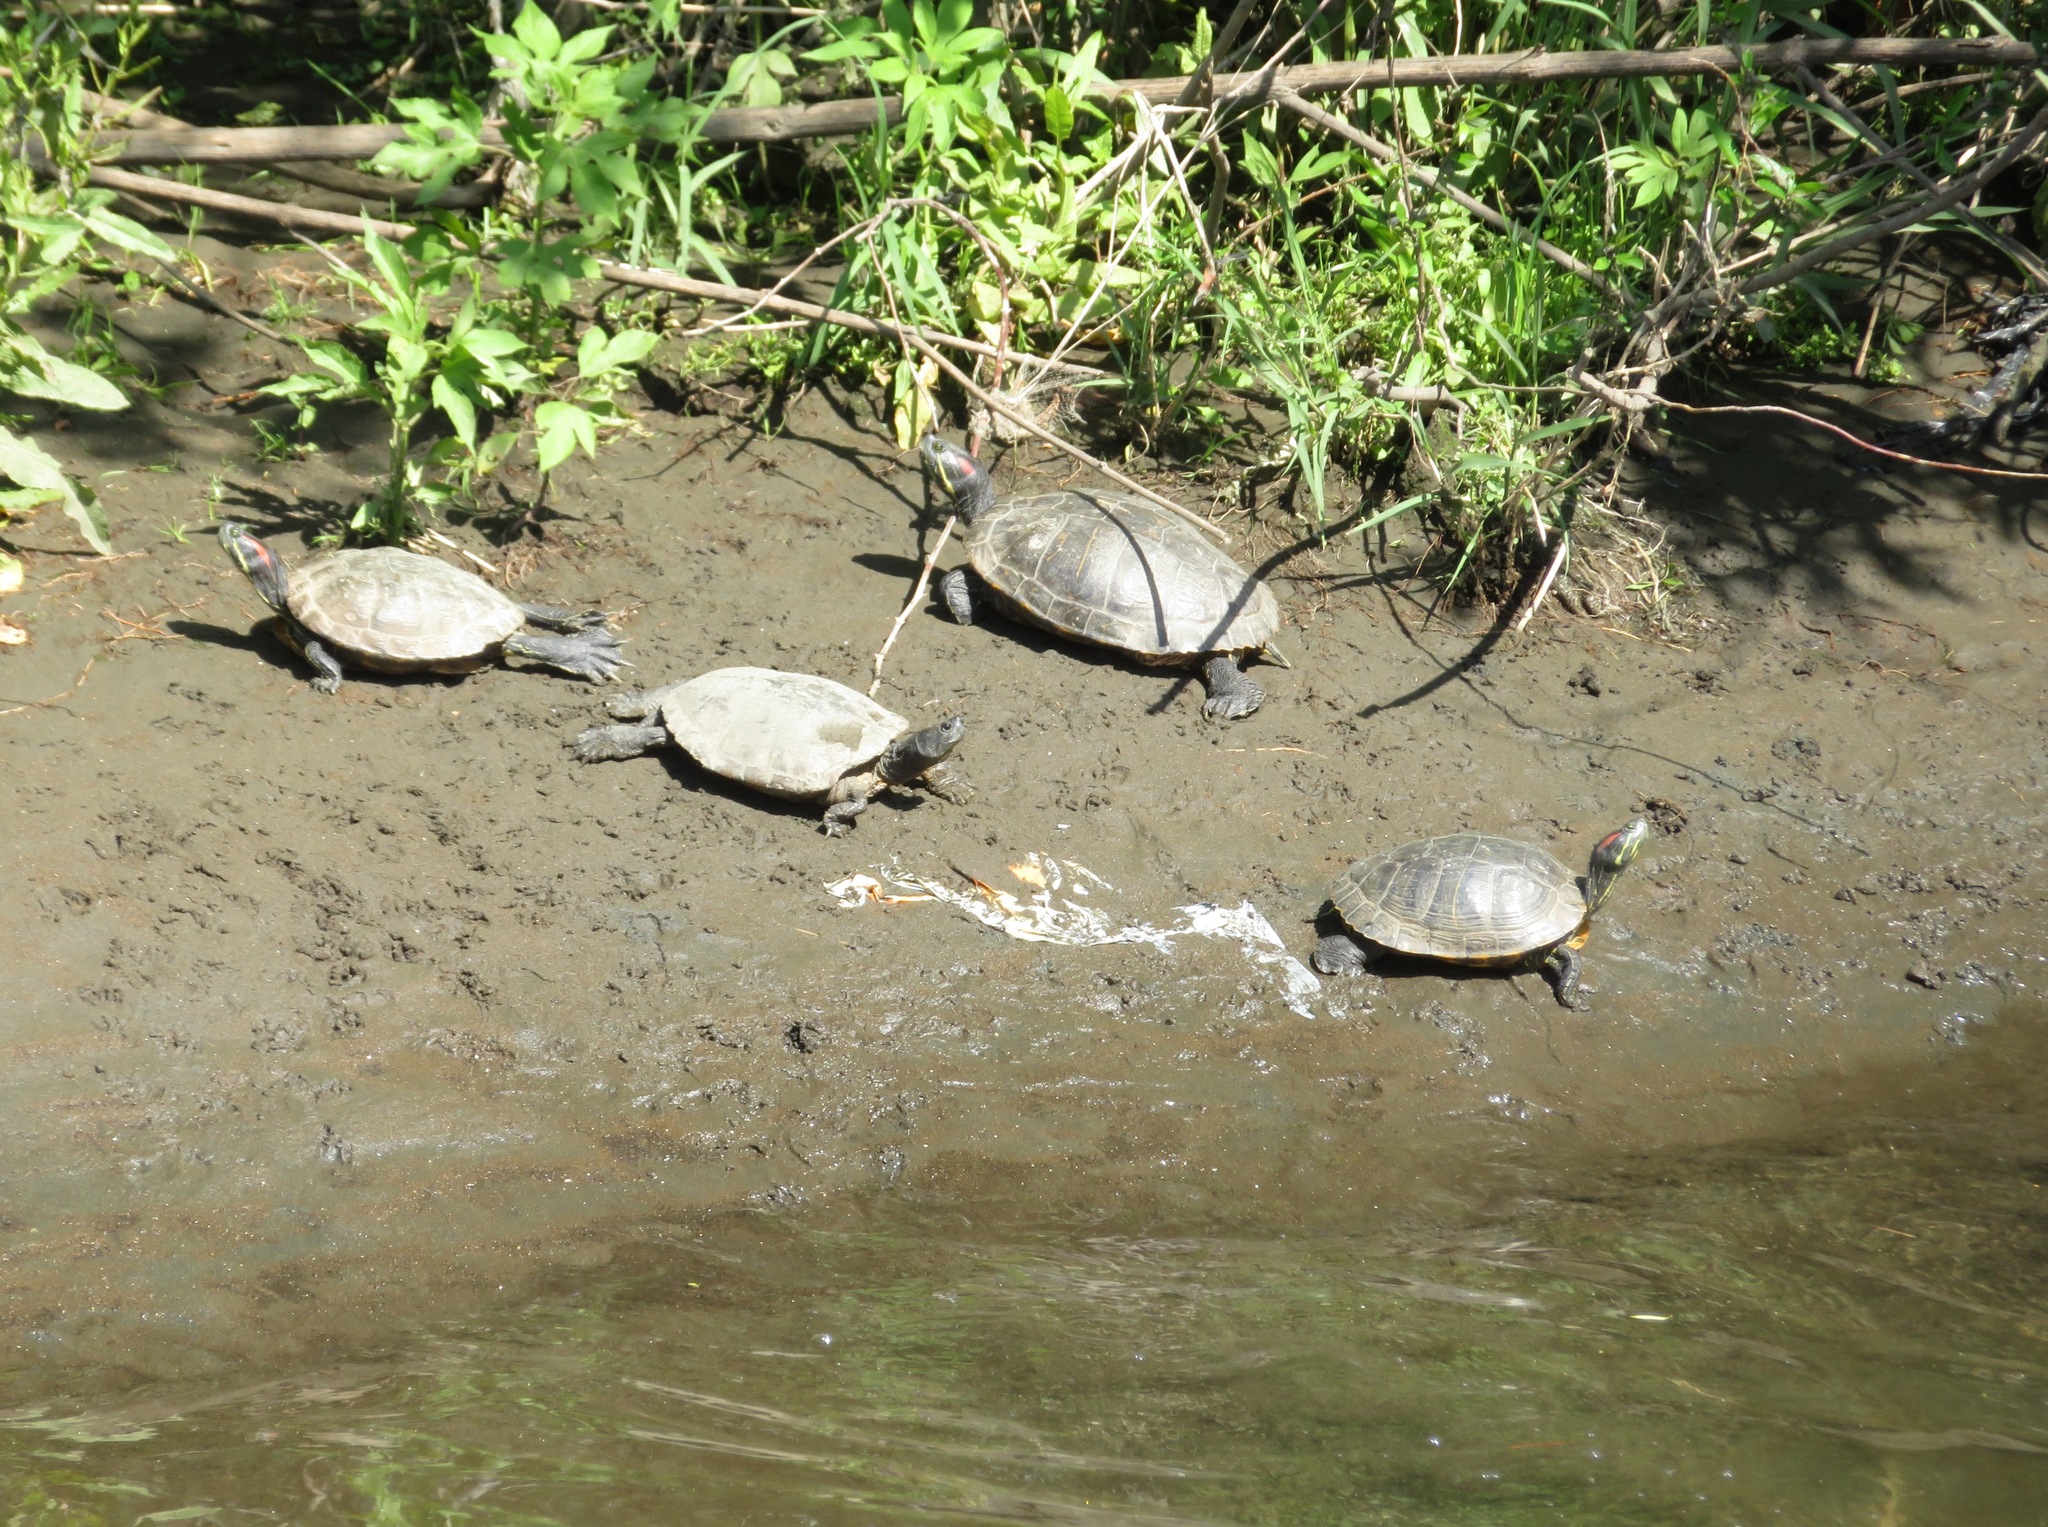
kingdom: Animalia
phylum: Chordata
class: Testudines
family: Emydidae
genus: Trachemys
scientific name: Trachemys scripta
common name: Slider
